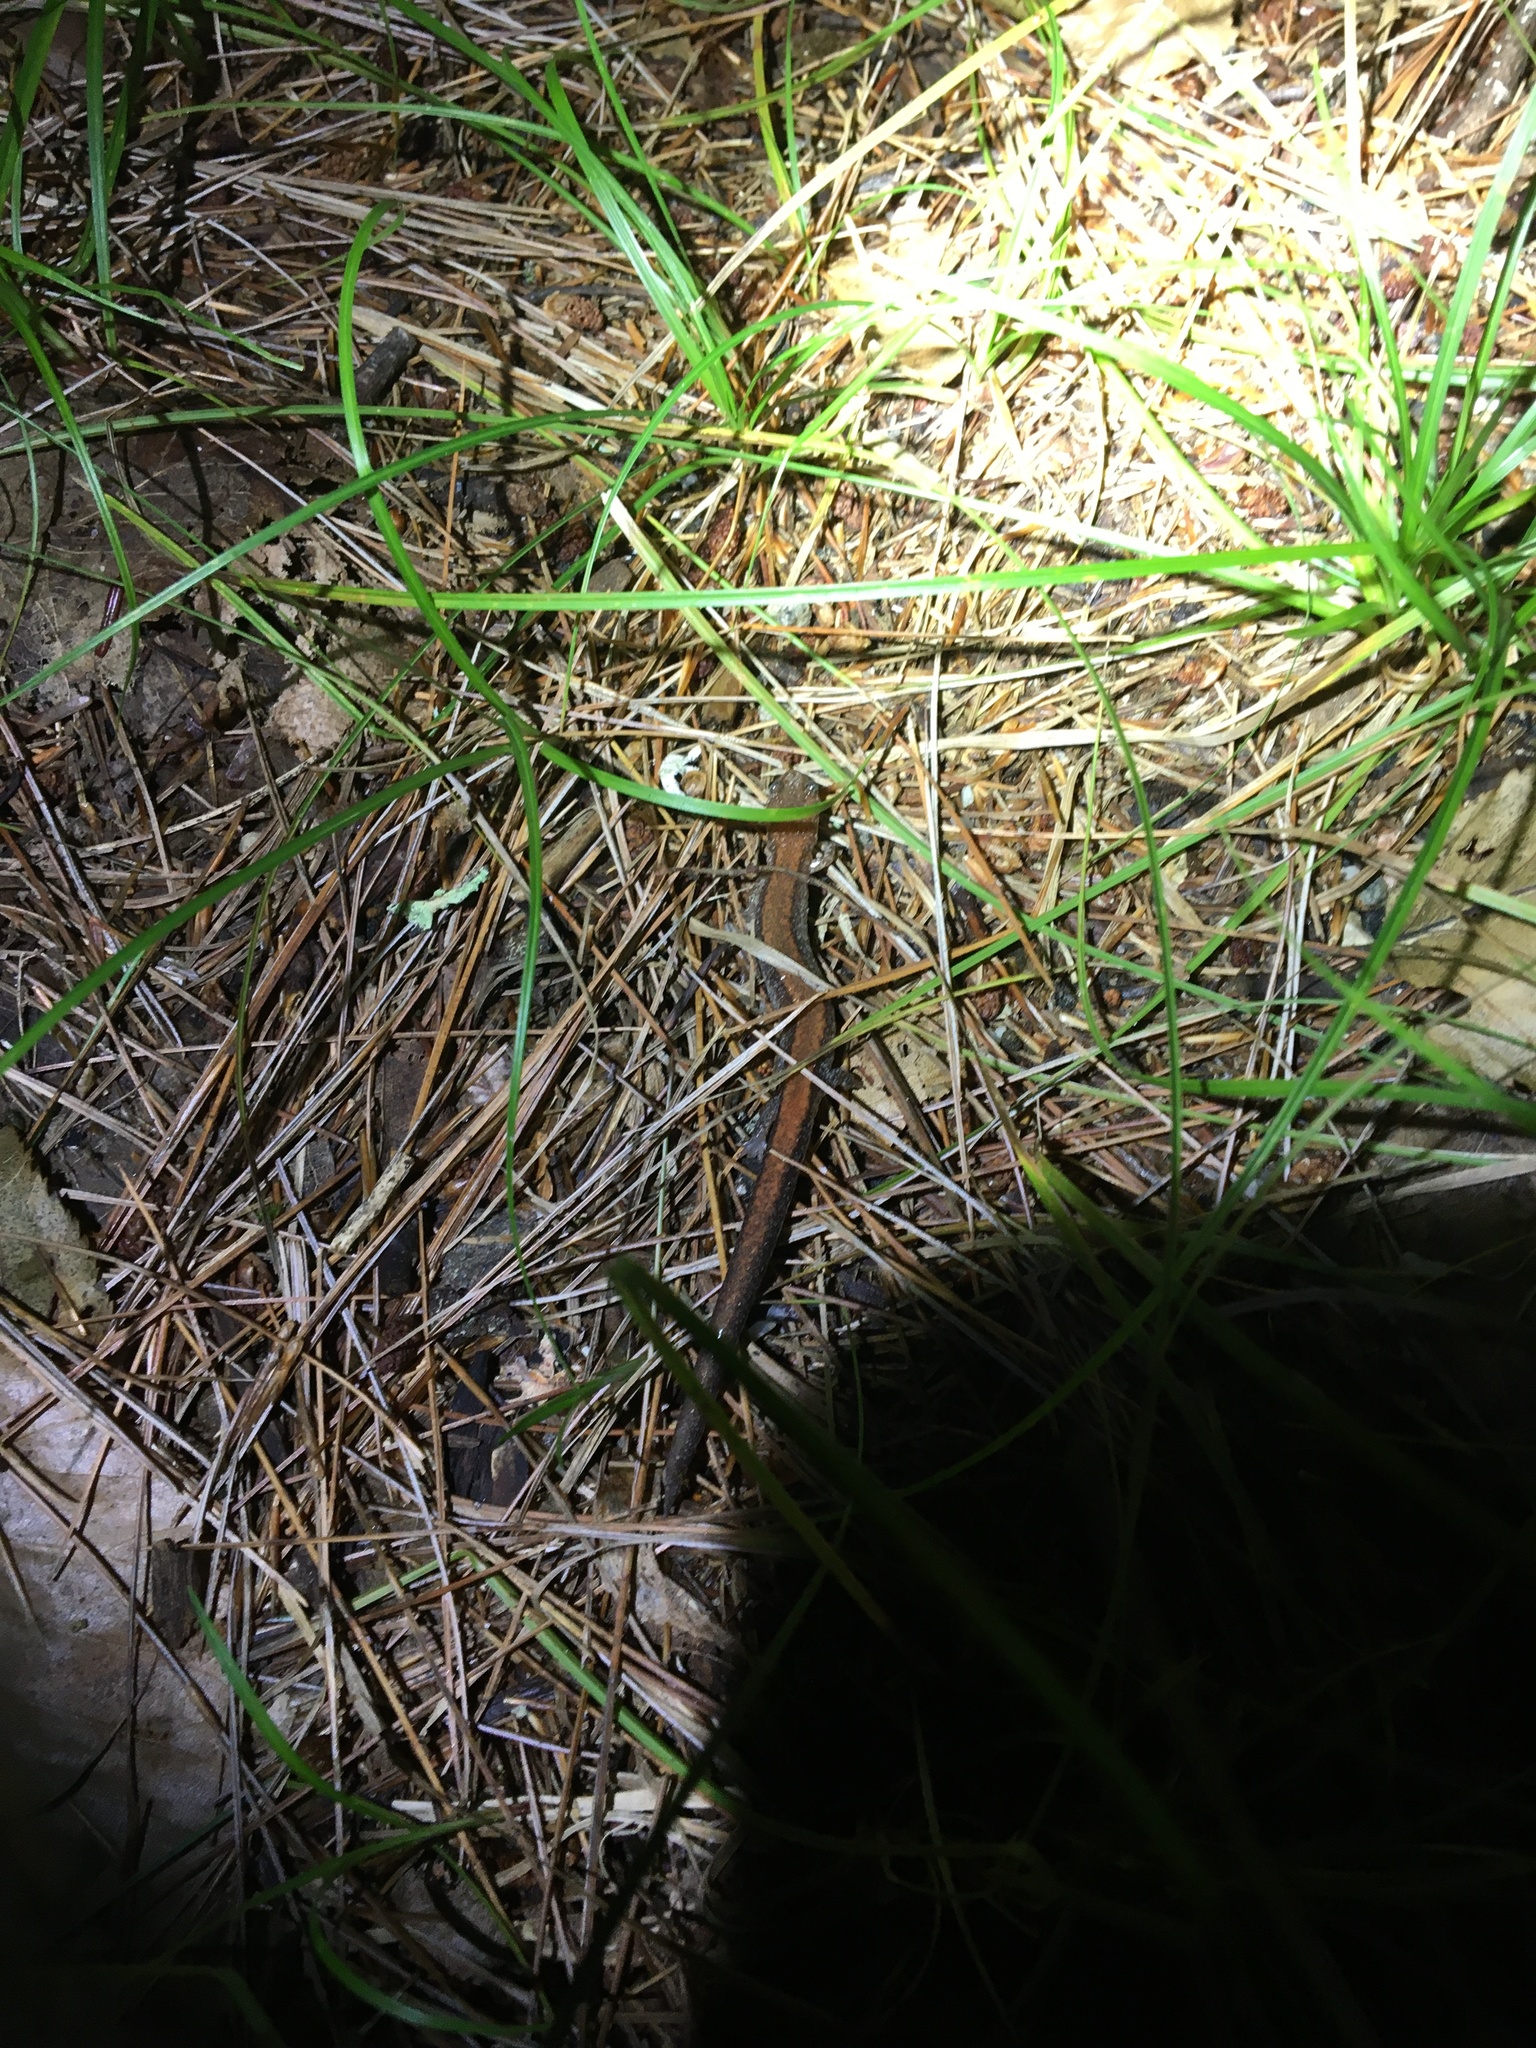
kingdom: Animalia
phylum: Chordata
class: Amphibia
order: Caudata
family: Plethodontidae
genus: Plethodon
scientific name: Plethodon cinereus
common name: Redback salamander
